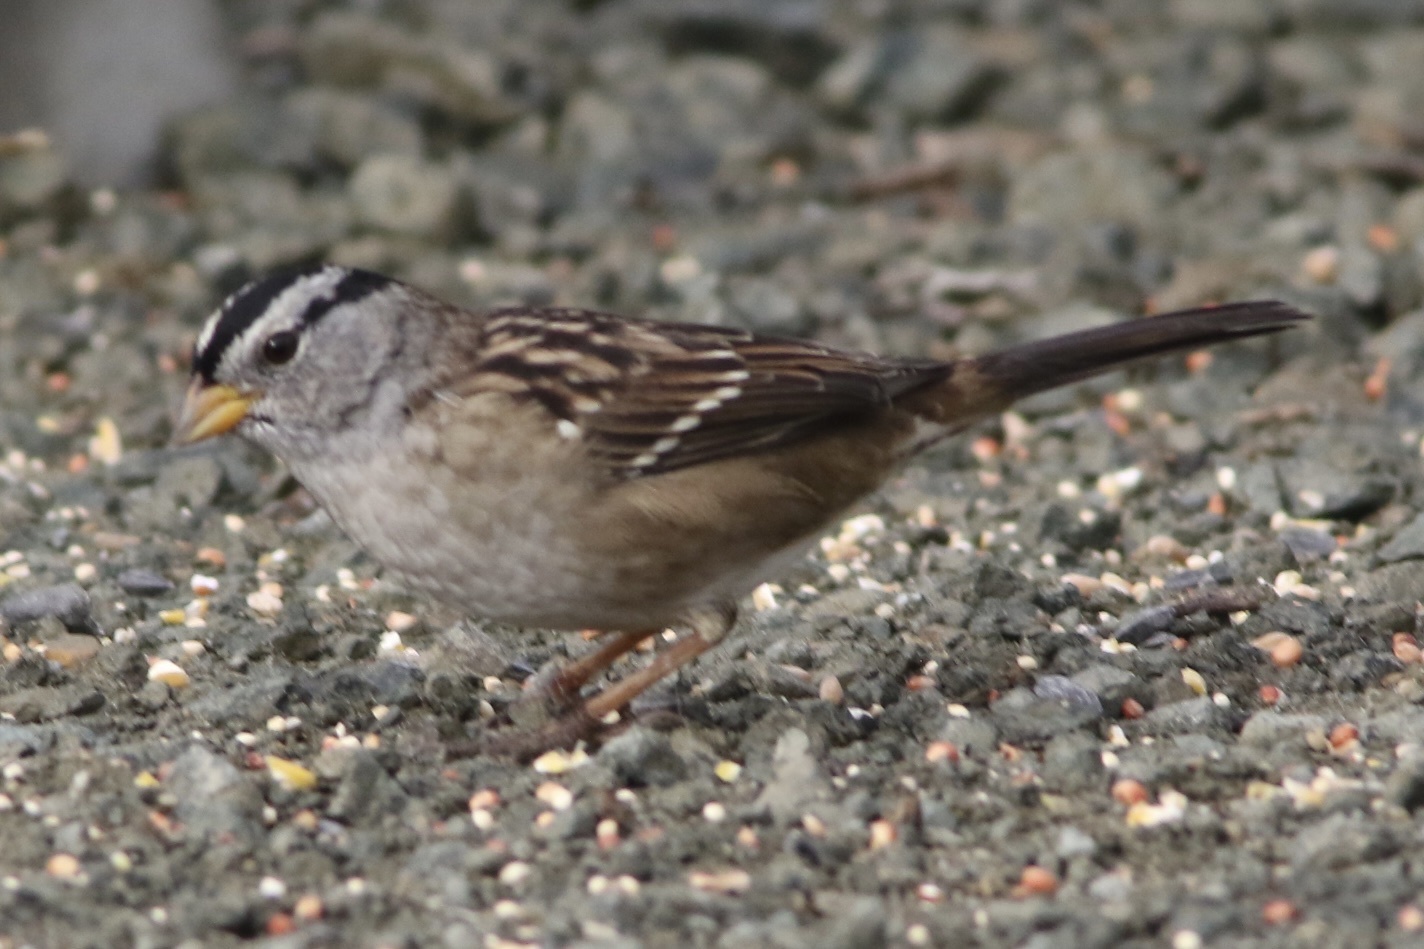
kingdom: Animalia
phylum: Chordata
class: Aves
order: Passeriformes
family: Passerellidae
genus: Zonotrichia
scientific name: Zonotrichia leucophrys
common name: White-crowned sparrow
